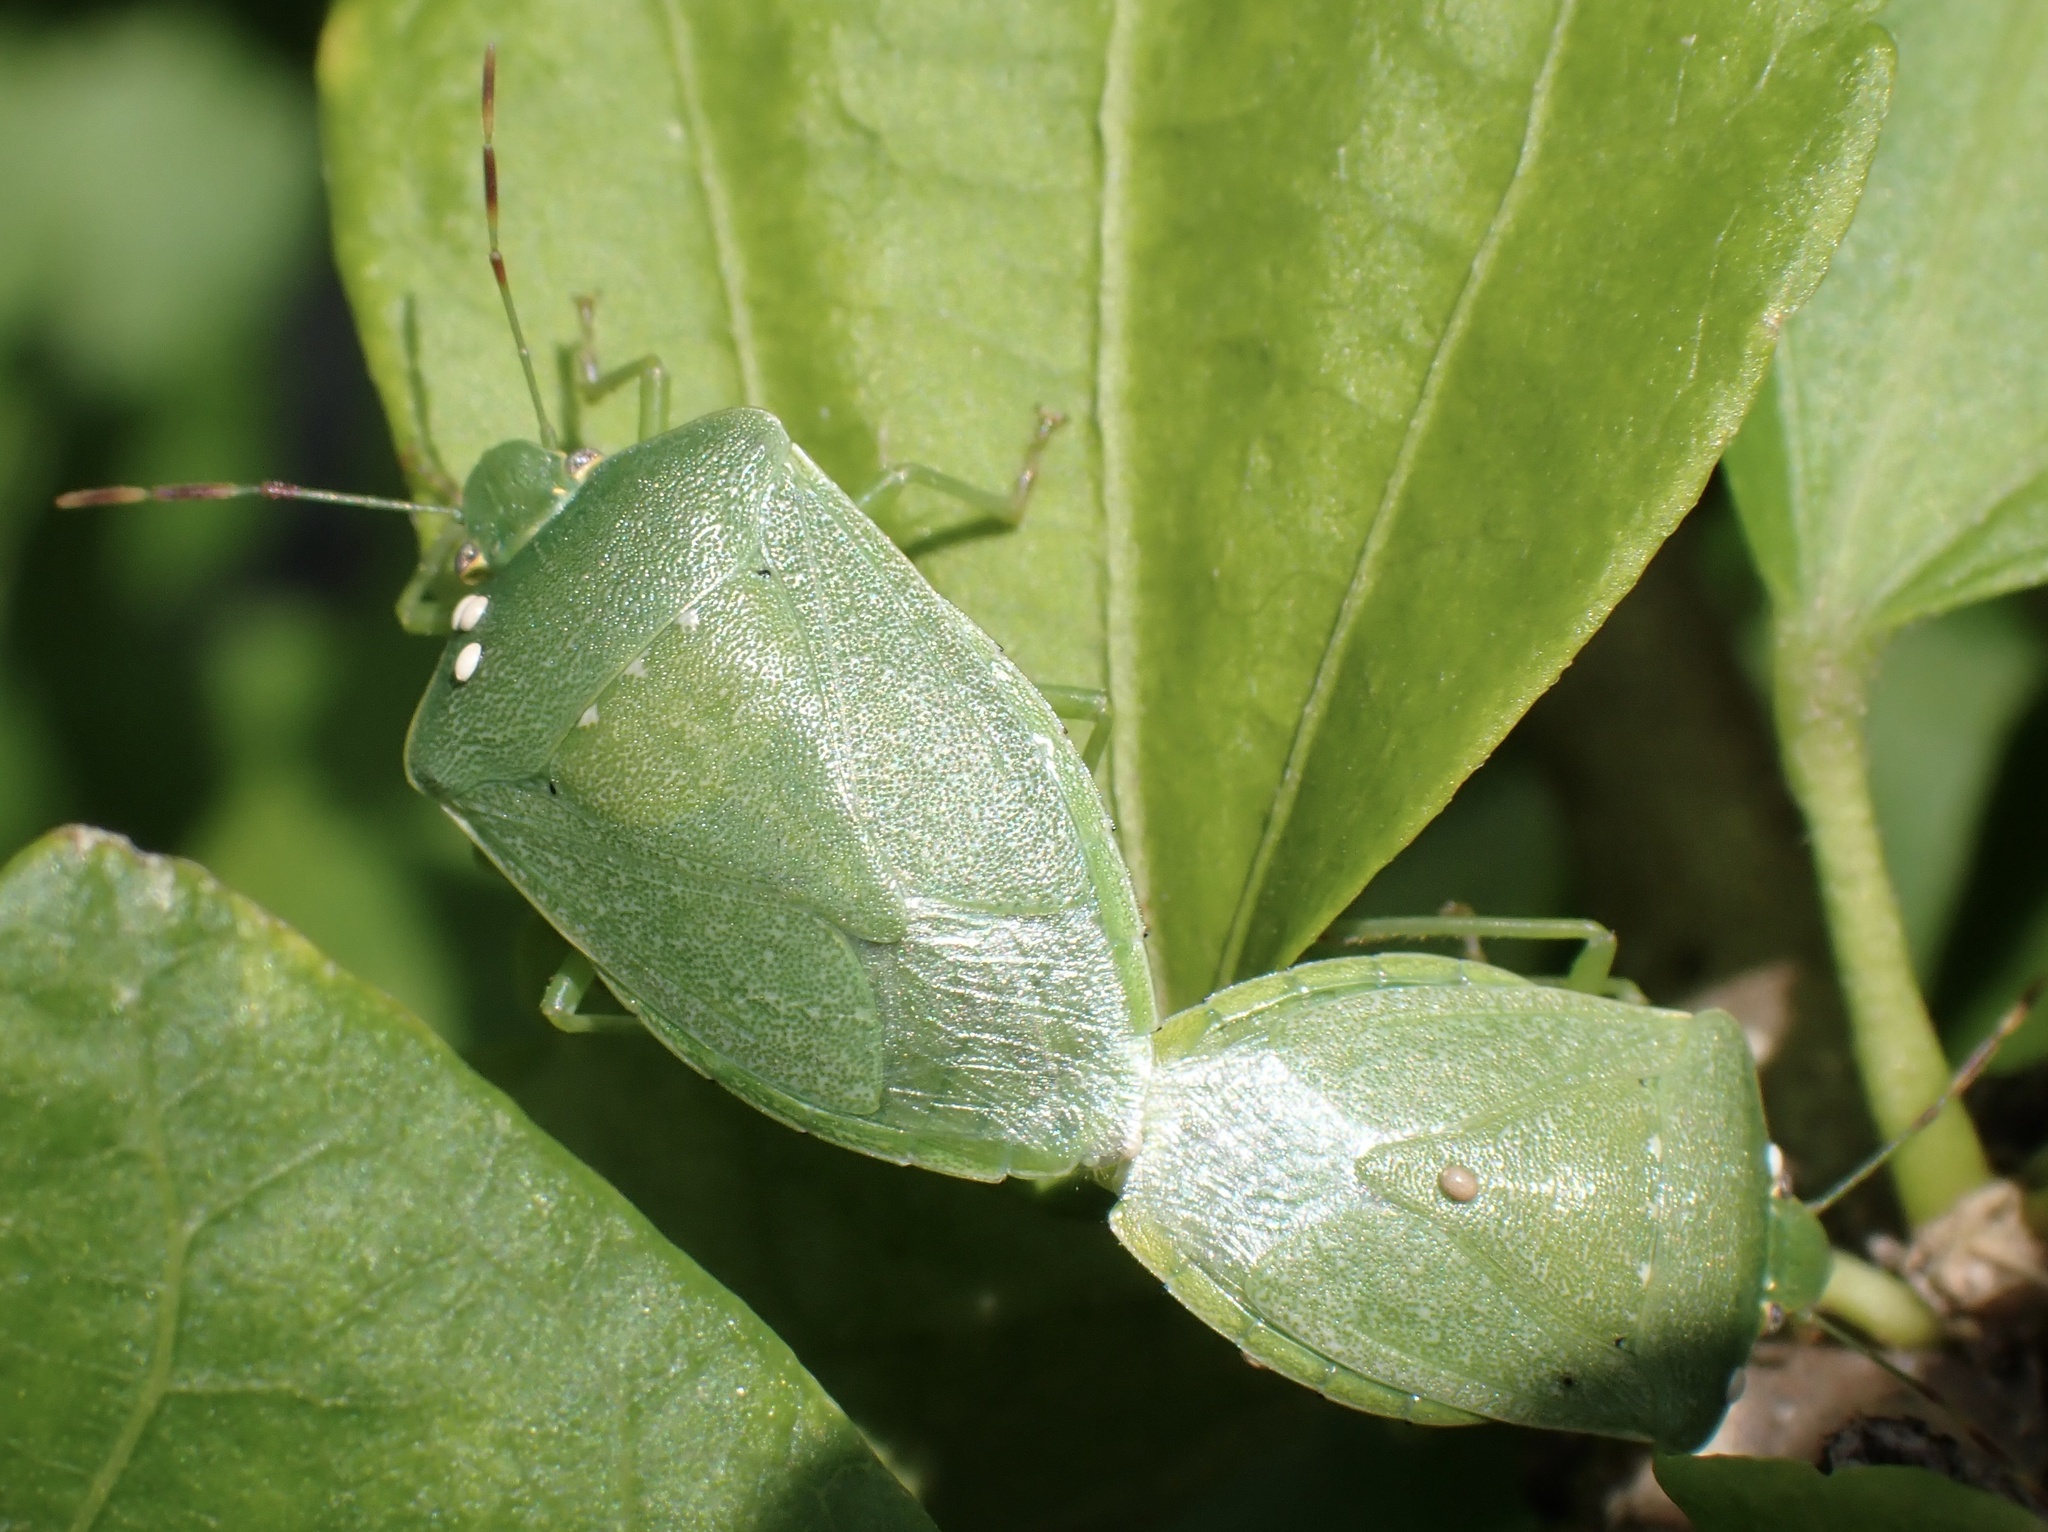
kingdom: Animalia
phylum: Arthropoda
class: Insecta
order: Hemiptera
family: Pentatomidae
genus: Nezara
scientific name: Nezara viridula
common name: Southern green stink bug
